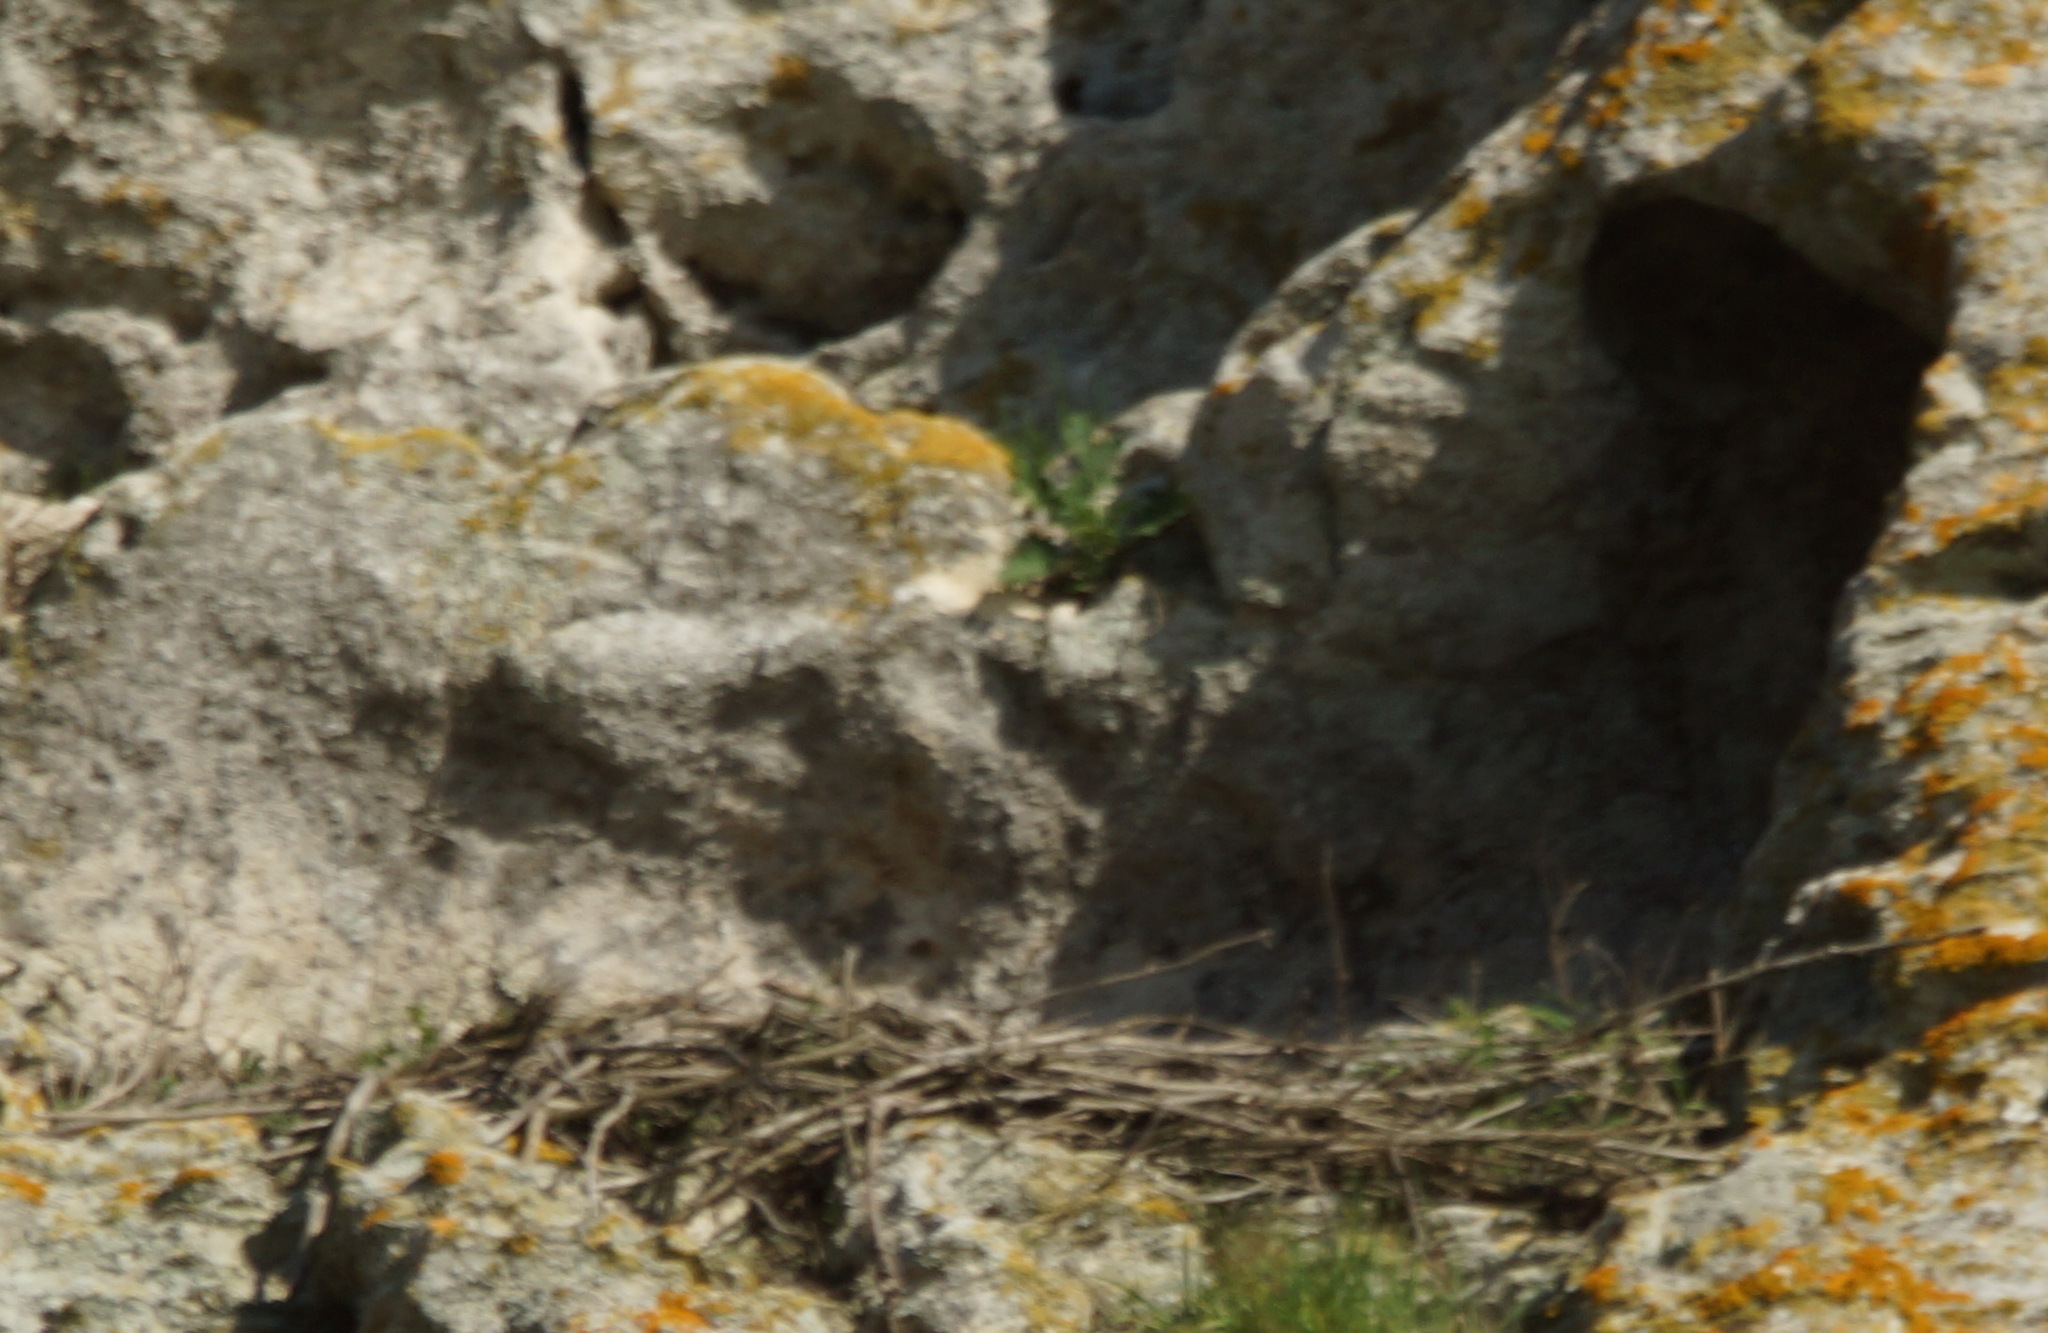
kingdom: Animalia
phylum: Chordata
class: Aves
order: Passeriformes
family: Corvidae
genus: Corvus
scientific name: Corvus corax
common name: Common raven
